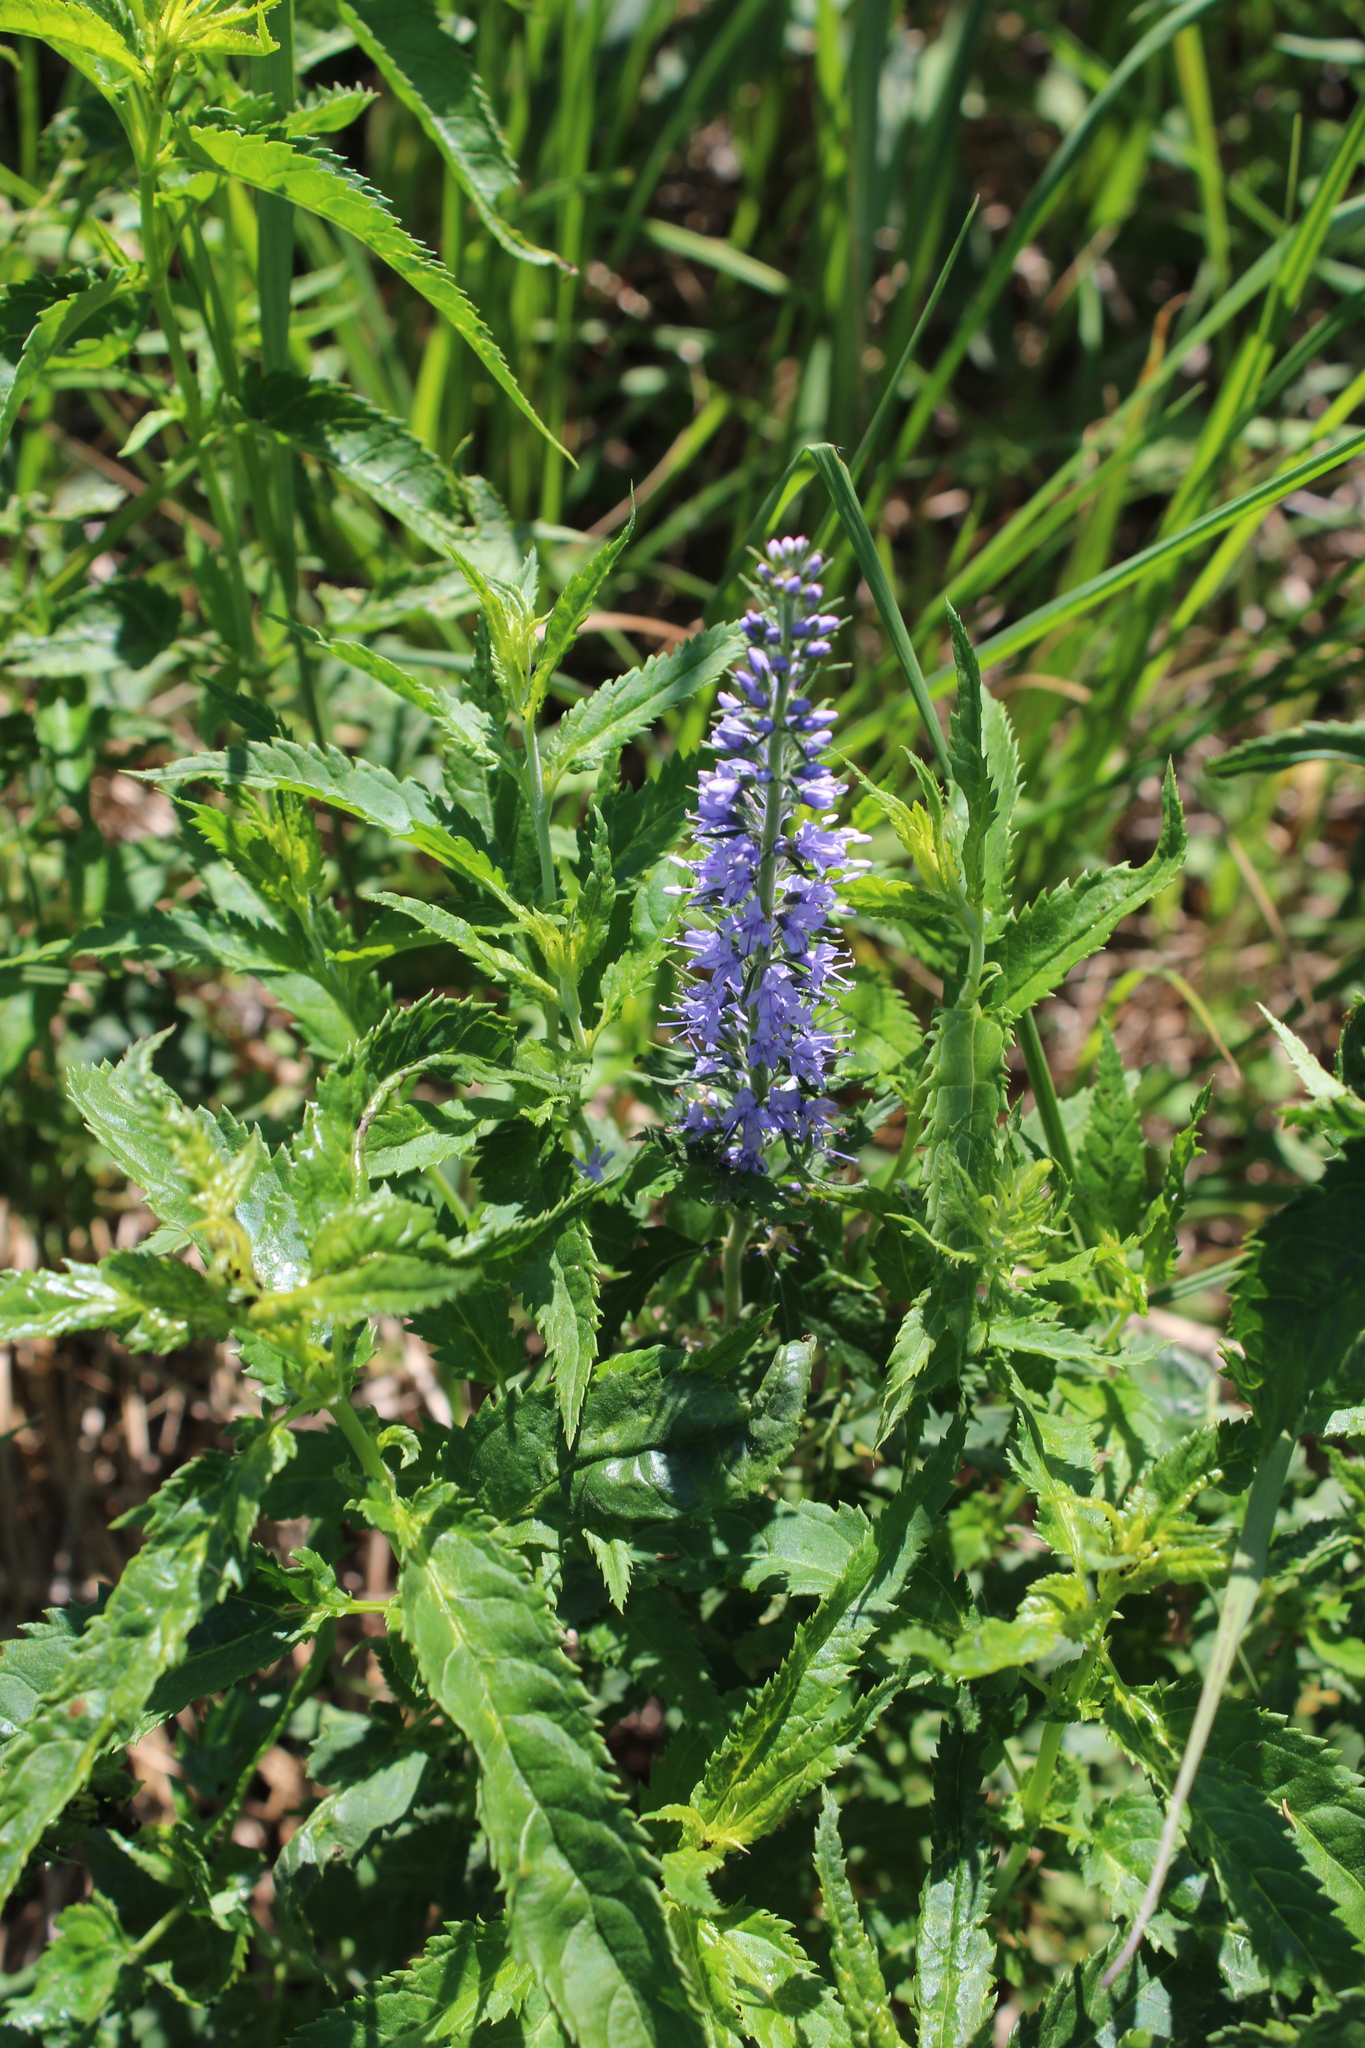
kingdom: Plantae
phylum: Tracheophyta
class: Magnoliopsida
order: Lamiales
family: Plantaginaceae
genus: Veronica
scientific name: Veronica longifolia
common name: Garden speedwell
